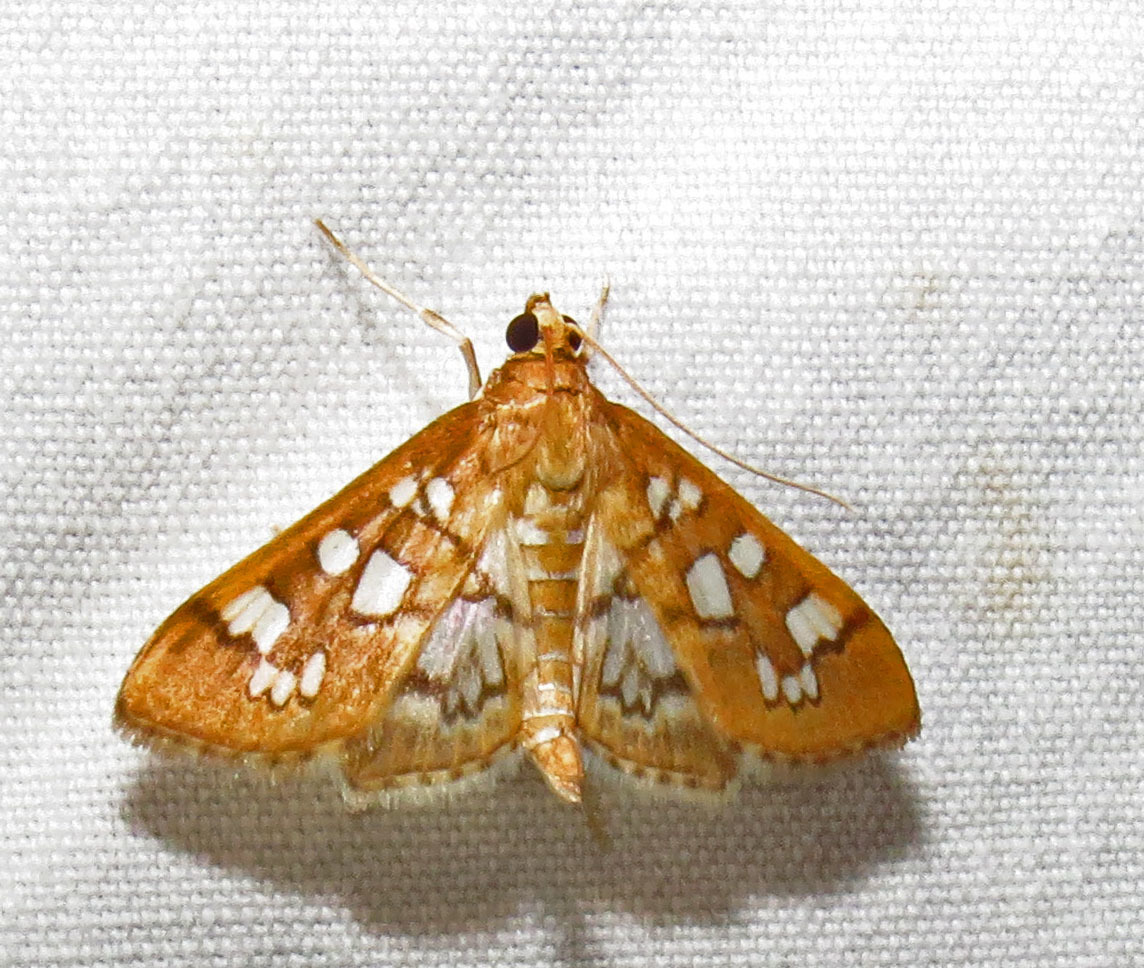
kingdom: Animalia
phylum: Arthropoda
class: Insecta
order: Lepidoptera
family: Crambidae
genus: Samea
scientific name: Samea baccatalis
